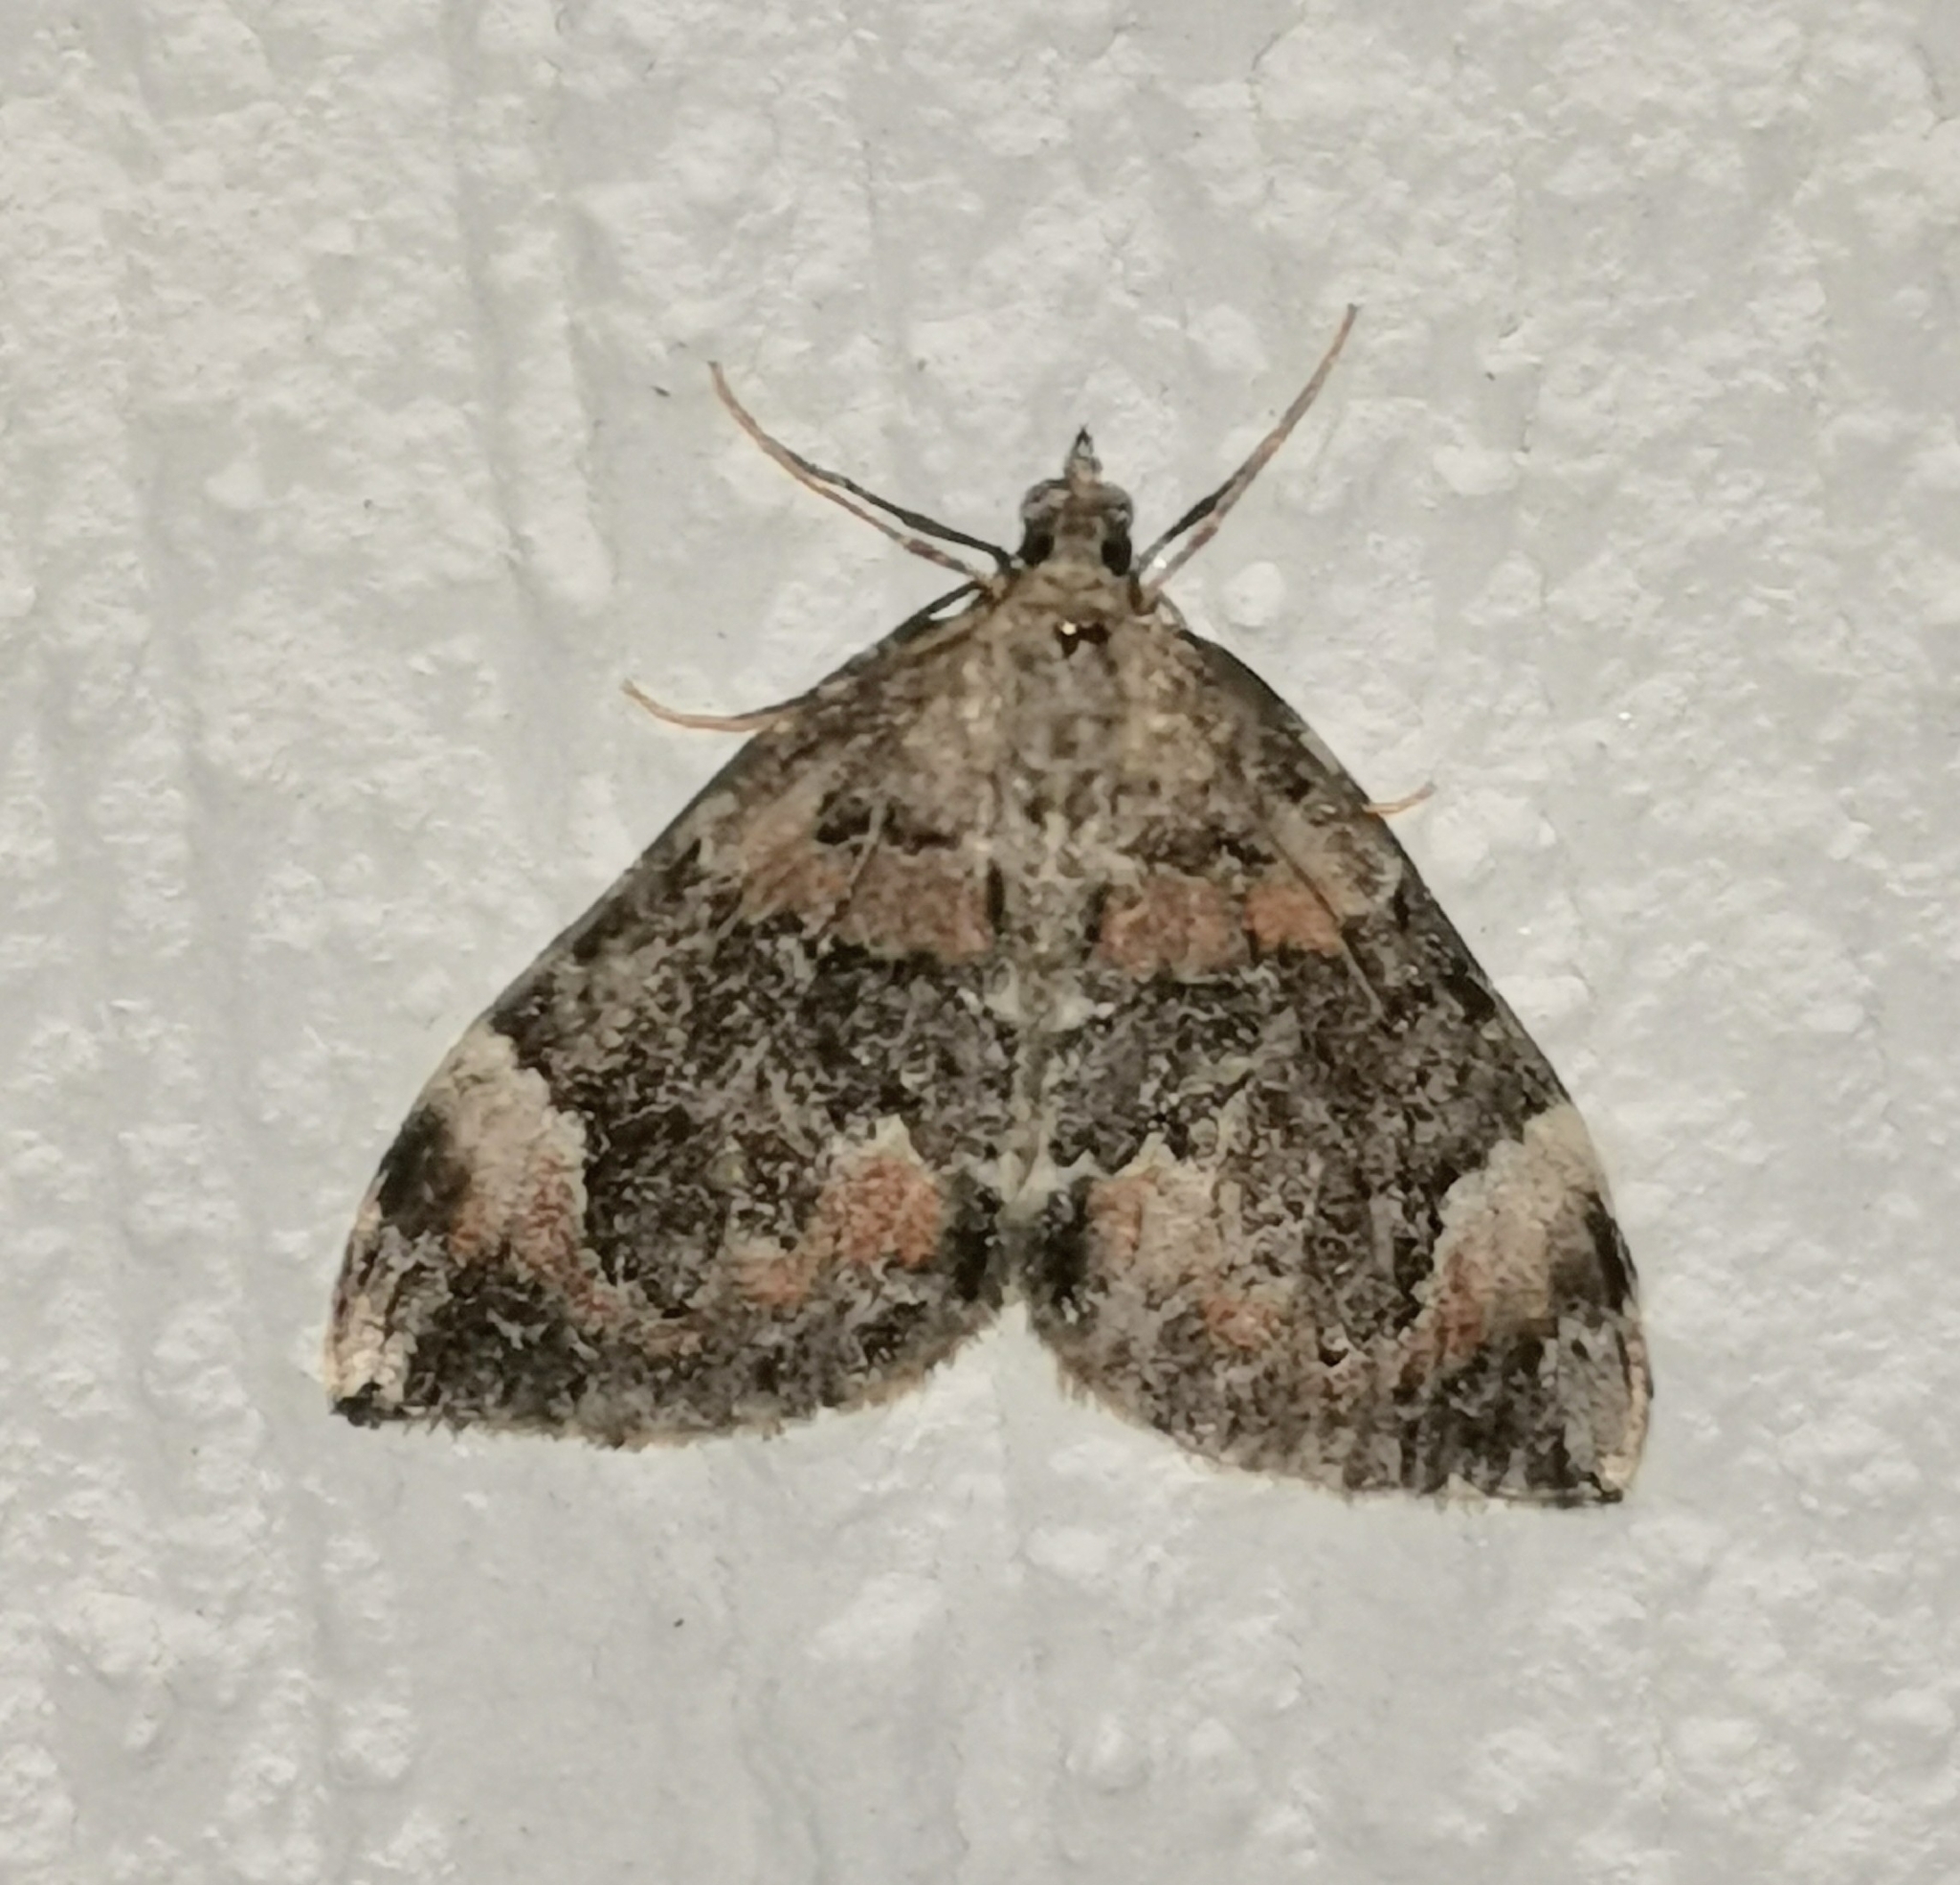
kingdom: Animalia
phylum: Arthropoda
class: Insecta
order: Lepidoptera
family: Geometridae
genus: Dysstroma
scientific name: Dysstroma citrata
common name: Dark marbled carpet
